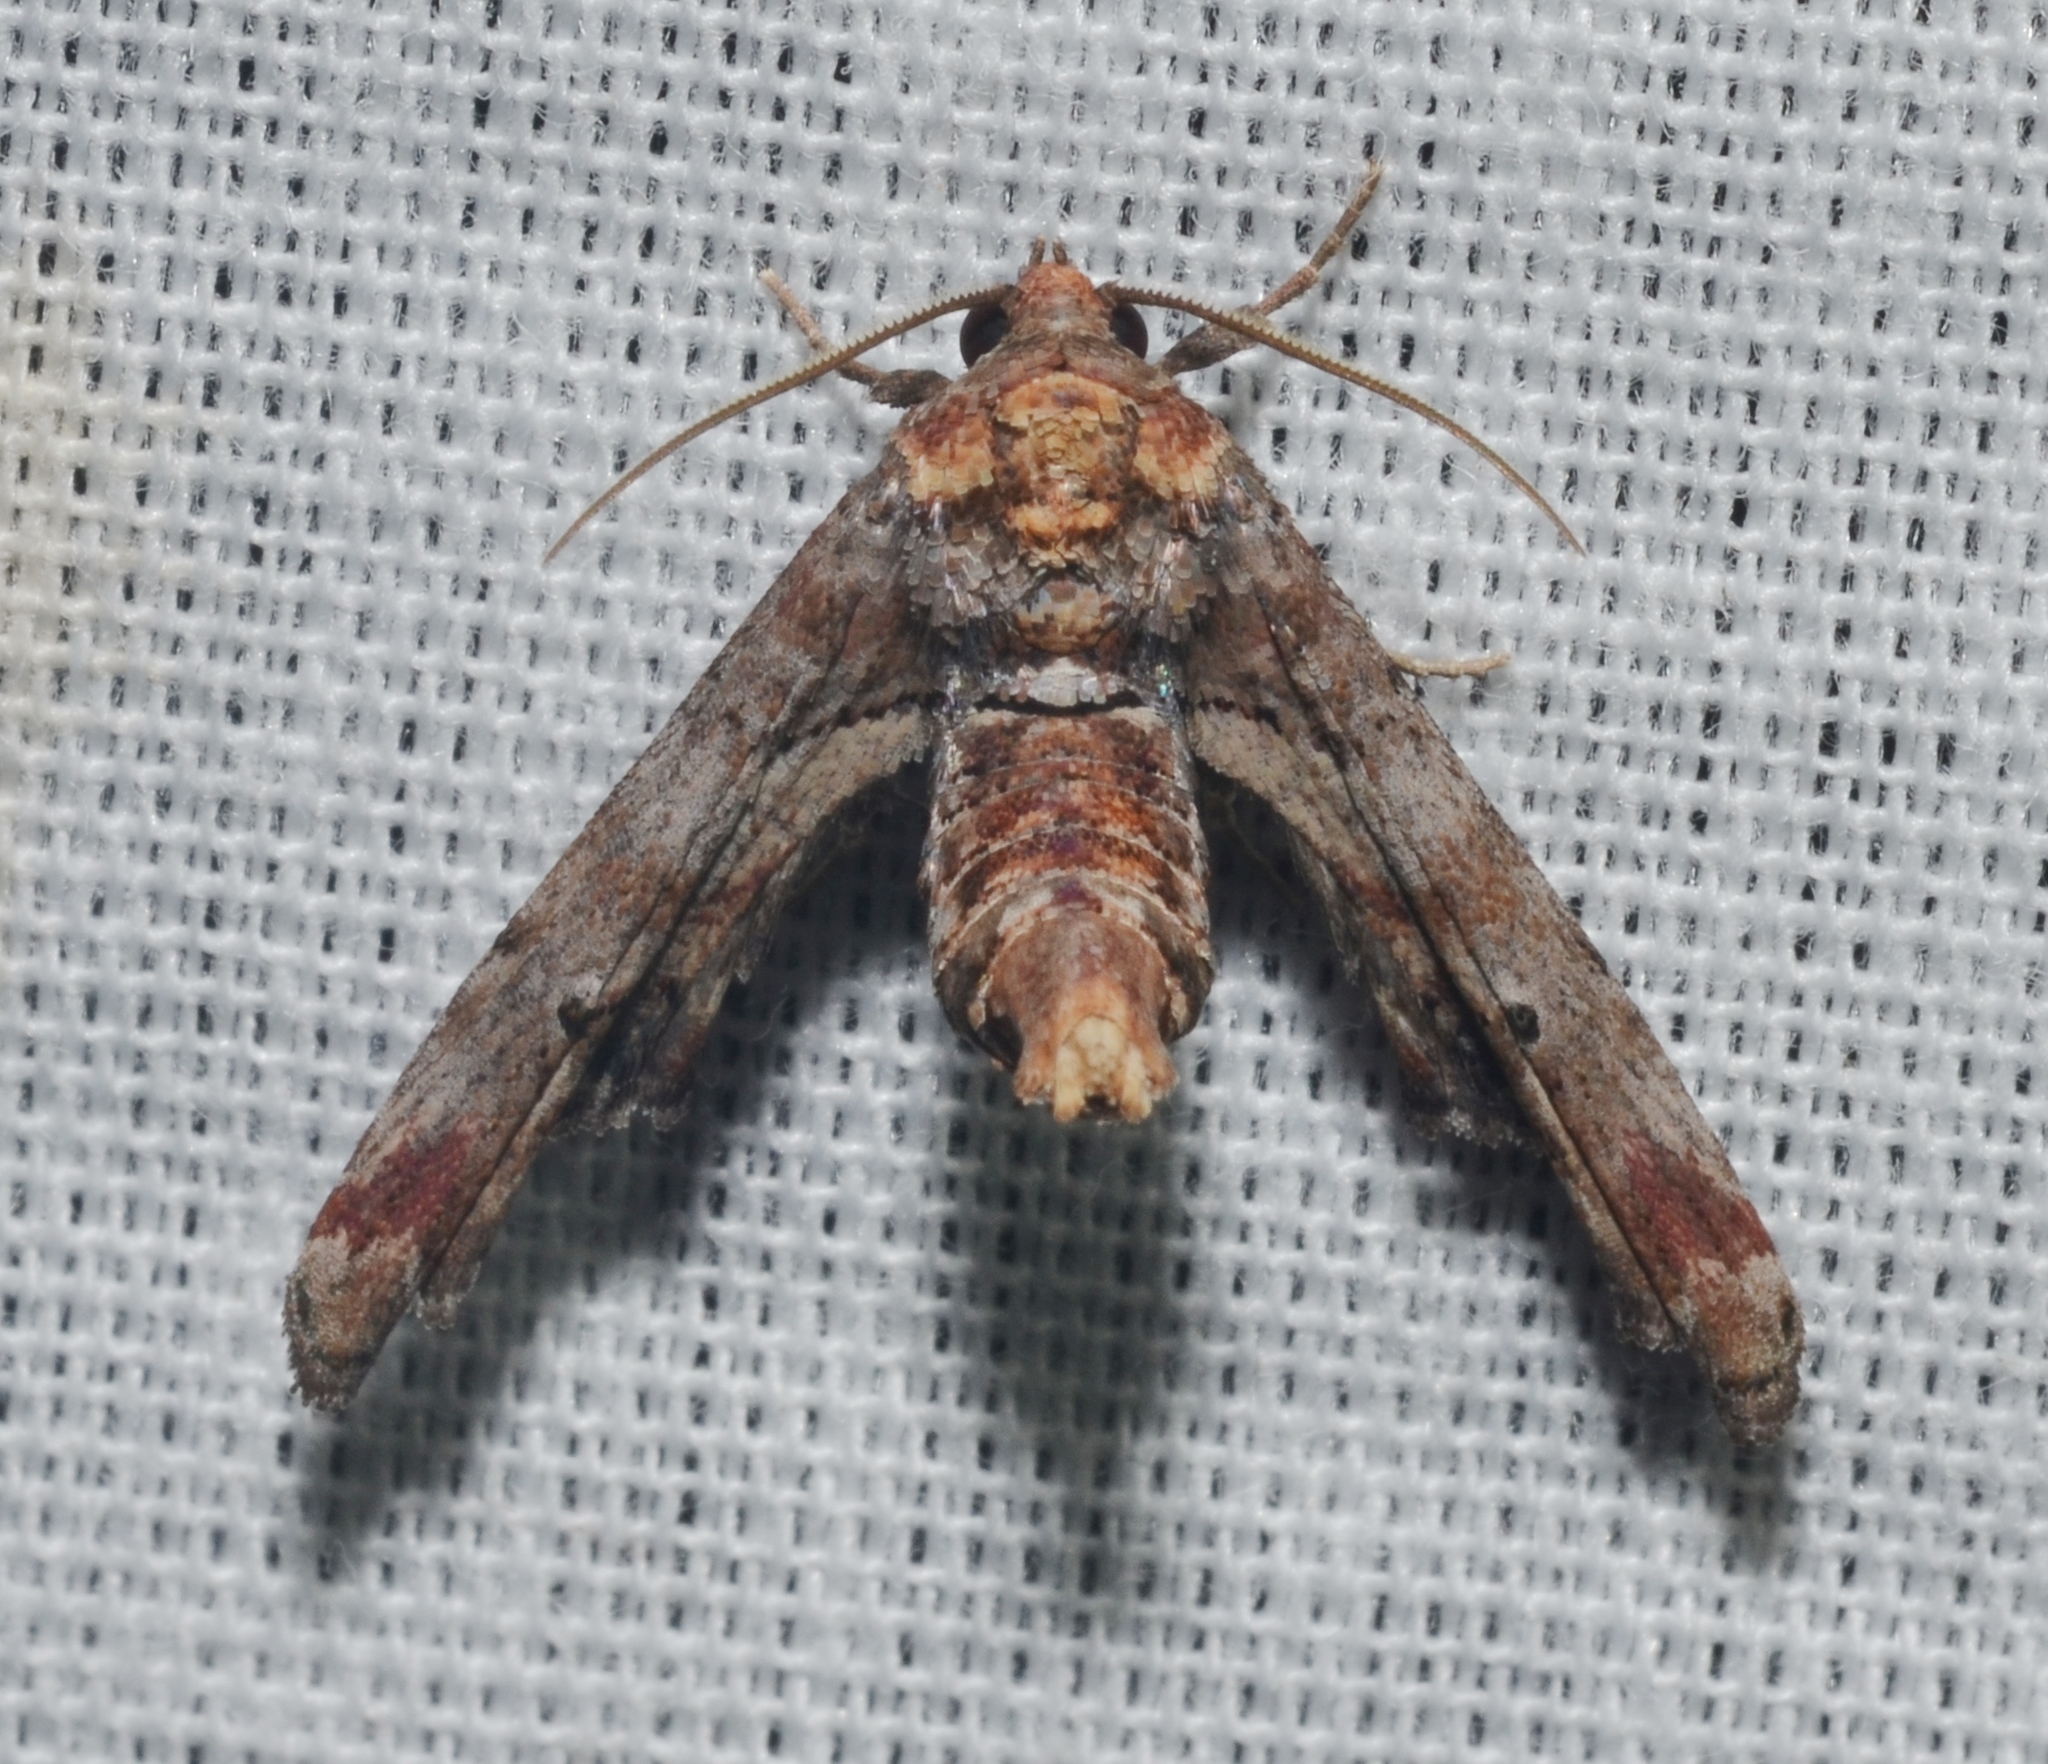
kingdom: Animalia
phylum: Arthropoda
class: Insecta
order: Lepidoptera
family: Euteliidae
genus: Marathyssa
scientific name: Marathyssa inficita
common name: Dark marathyssa moth
